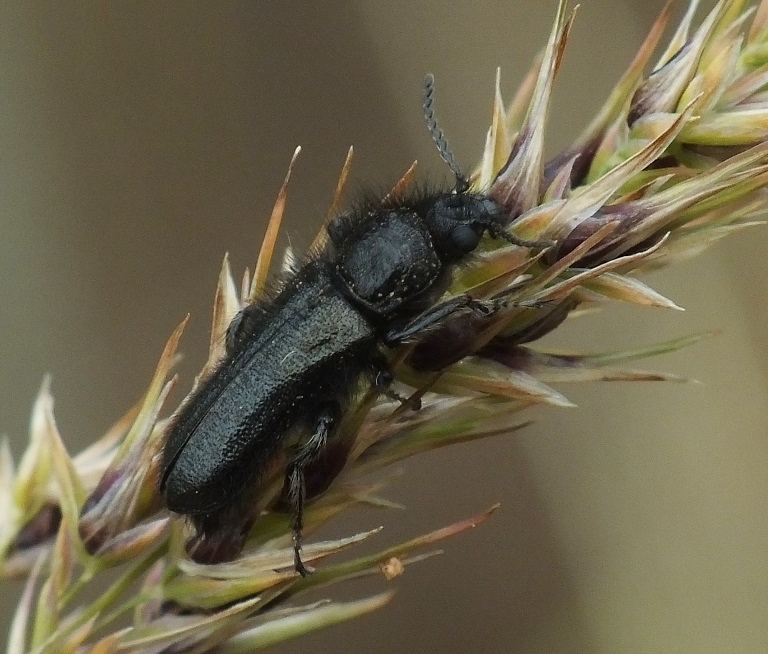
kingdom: Animalia
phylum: Arthropoda
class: Insecta
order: Coleoptera
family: Melyridae
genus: Enicopus
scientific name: Enicopus ater
